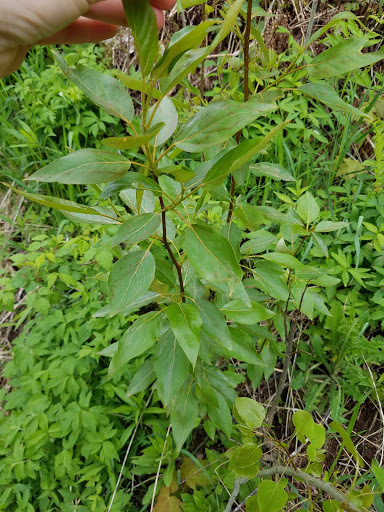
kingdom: Plantae
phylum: Tracheophyta
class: Magnoliopsida
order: Malpighiales
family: Salicaceae
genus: Populus
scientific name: Populus balsamifera
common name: Balsam poplar
